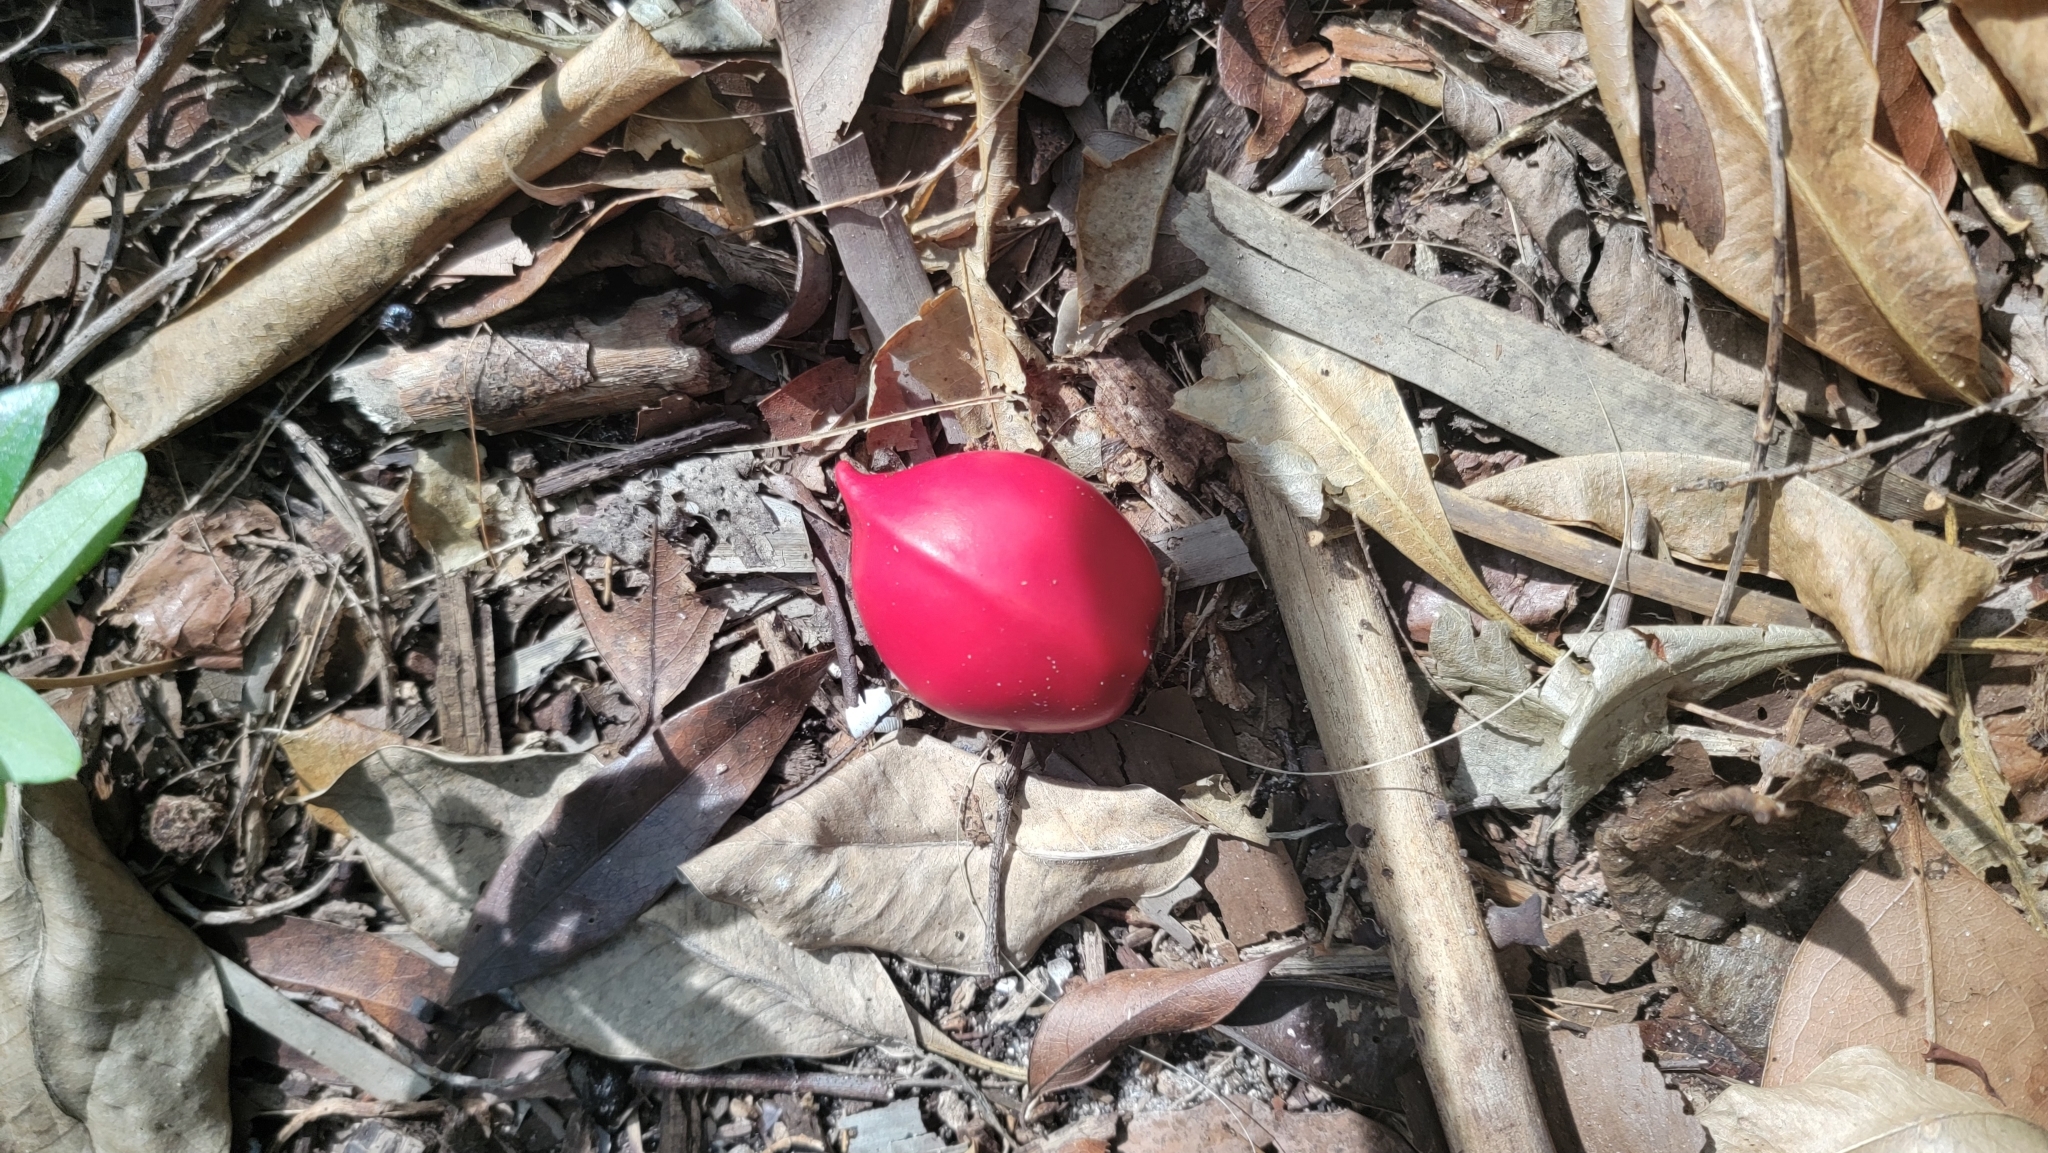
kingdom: Plantae
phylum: Tracheophyta
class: Magnoliopsida
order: Gentianales
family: Apocynaceae
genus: Ochrosia
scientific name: Ochrosia elliptica
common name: Elliptic yellowwood
